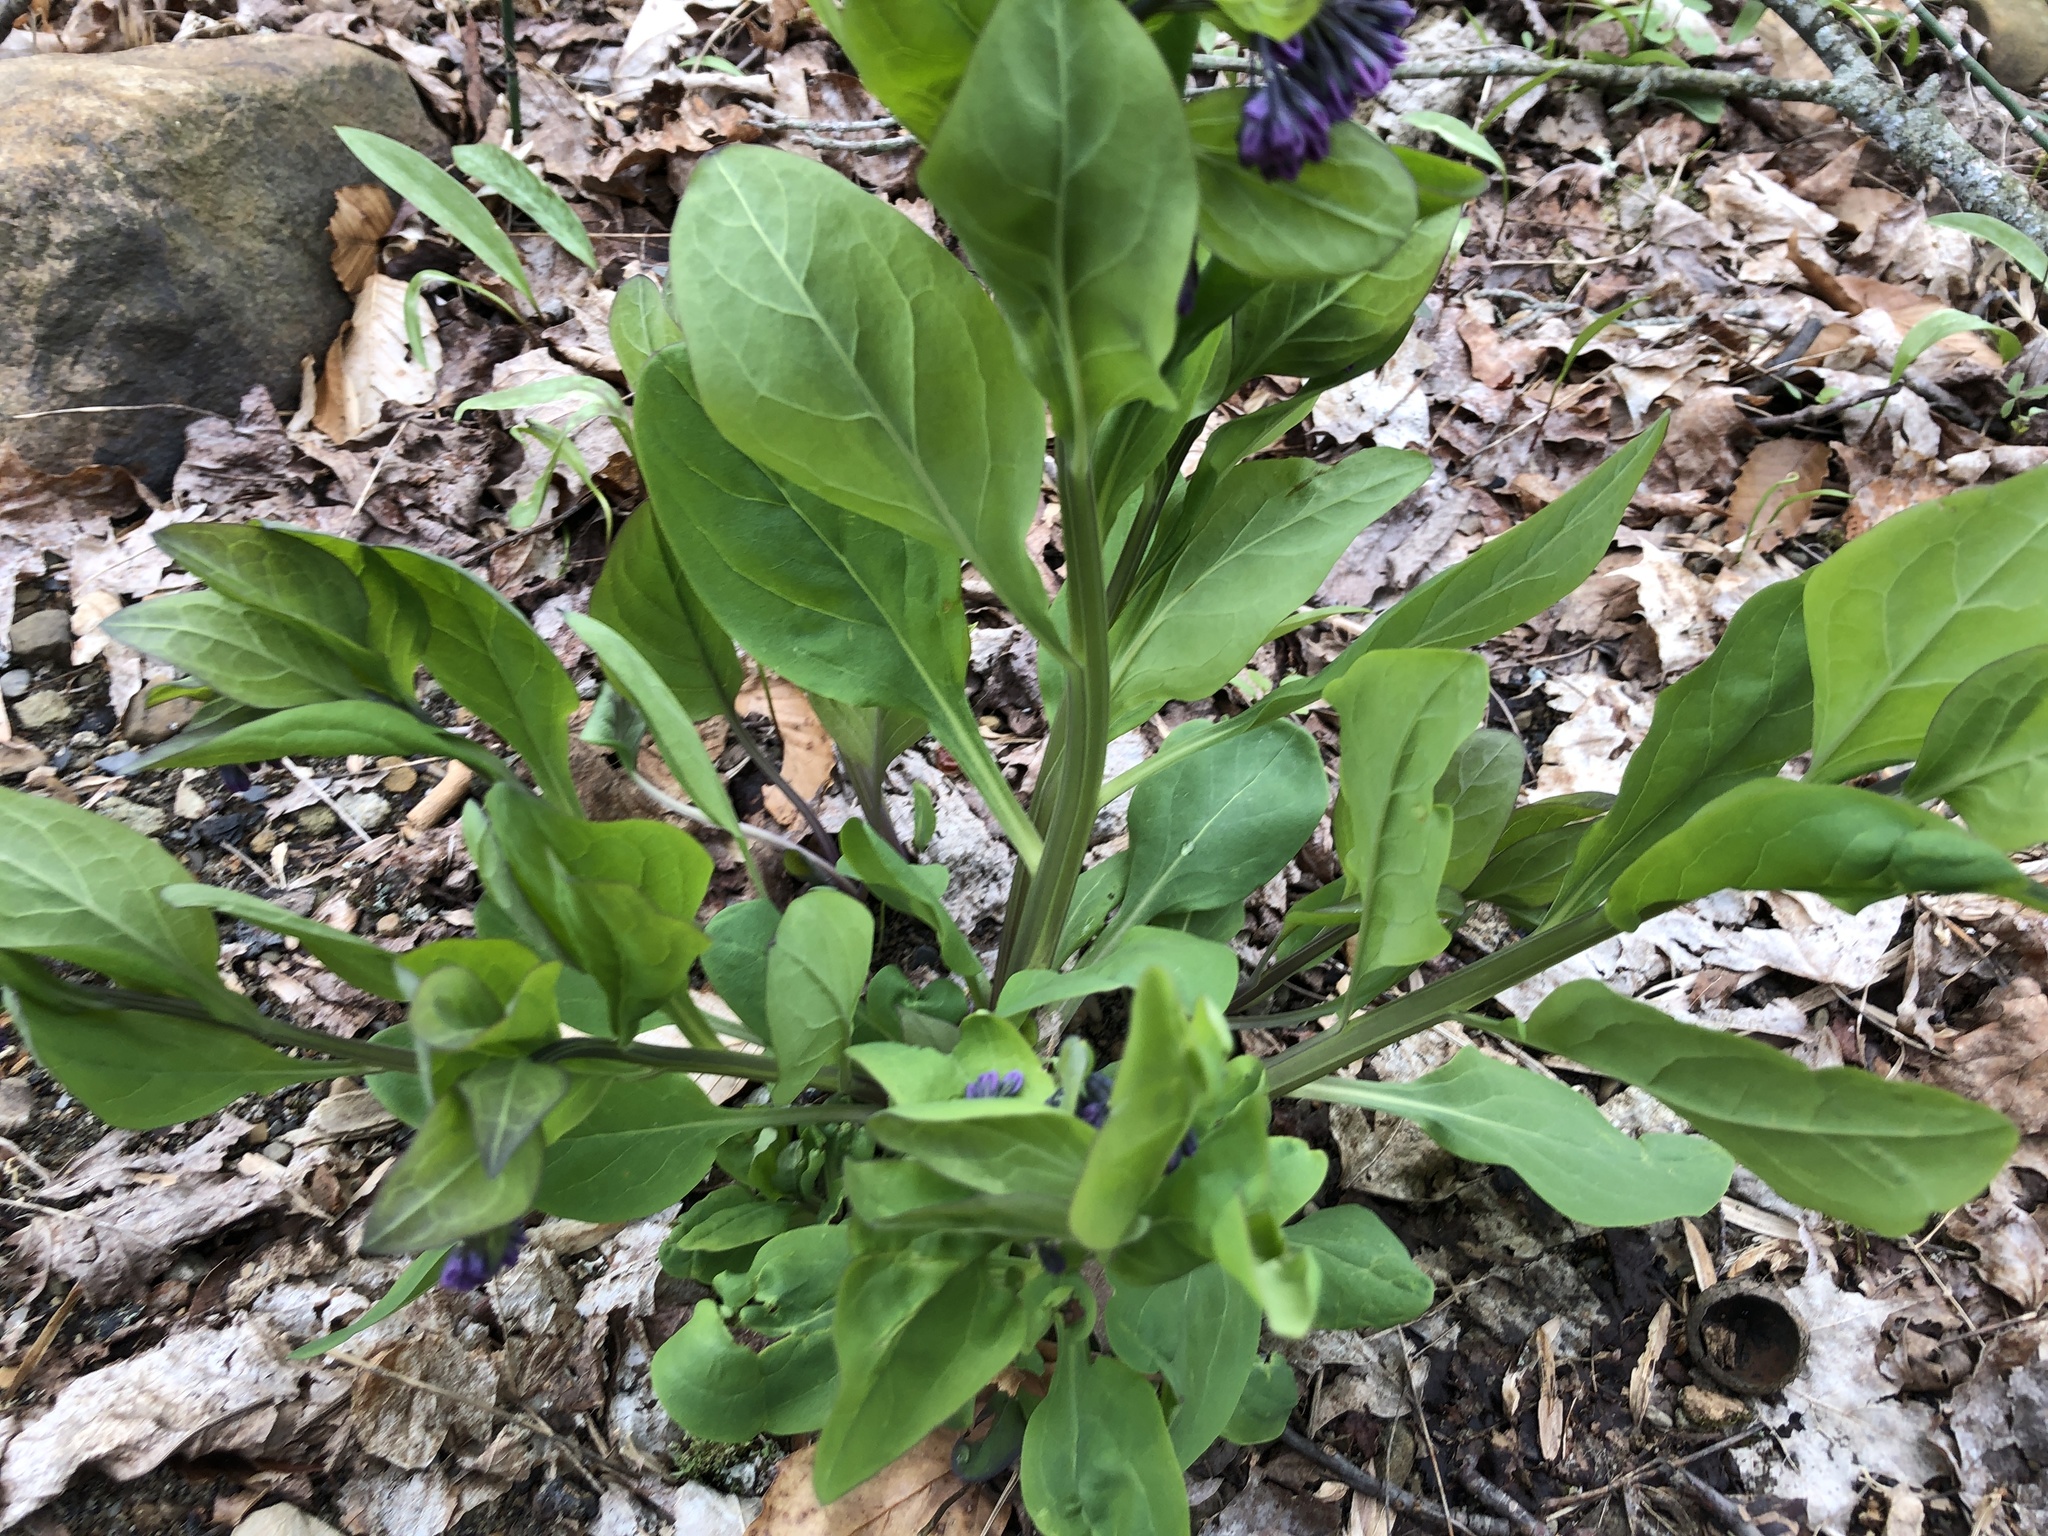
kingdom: Plantae
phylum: Tracheophyta
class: Magnoliopsida
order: Boraginales
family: Boraginaceae
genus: Mertensia
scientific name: Mertensia virginica
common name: Virginia bluebells
